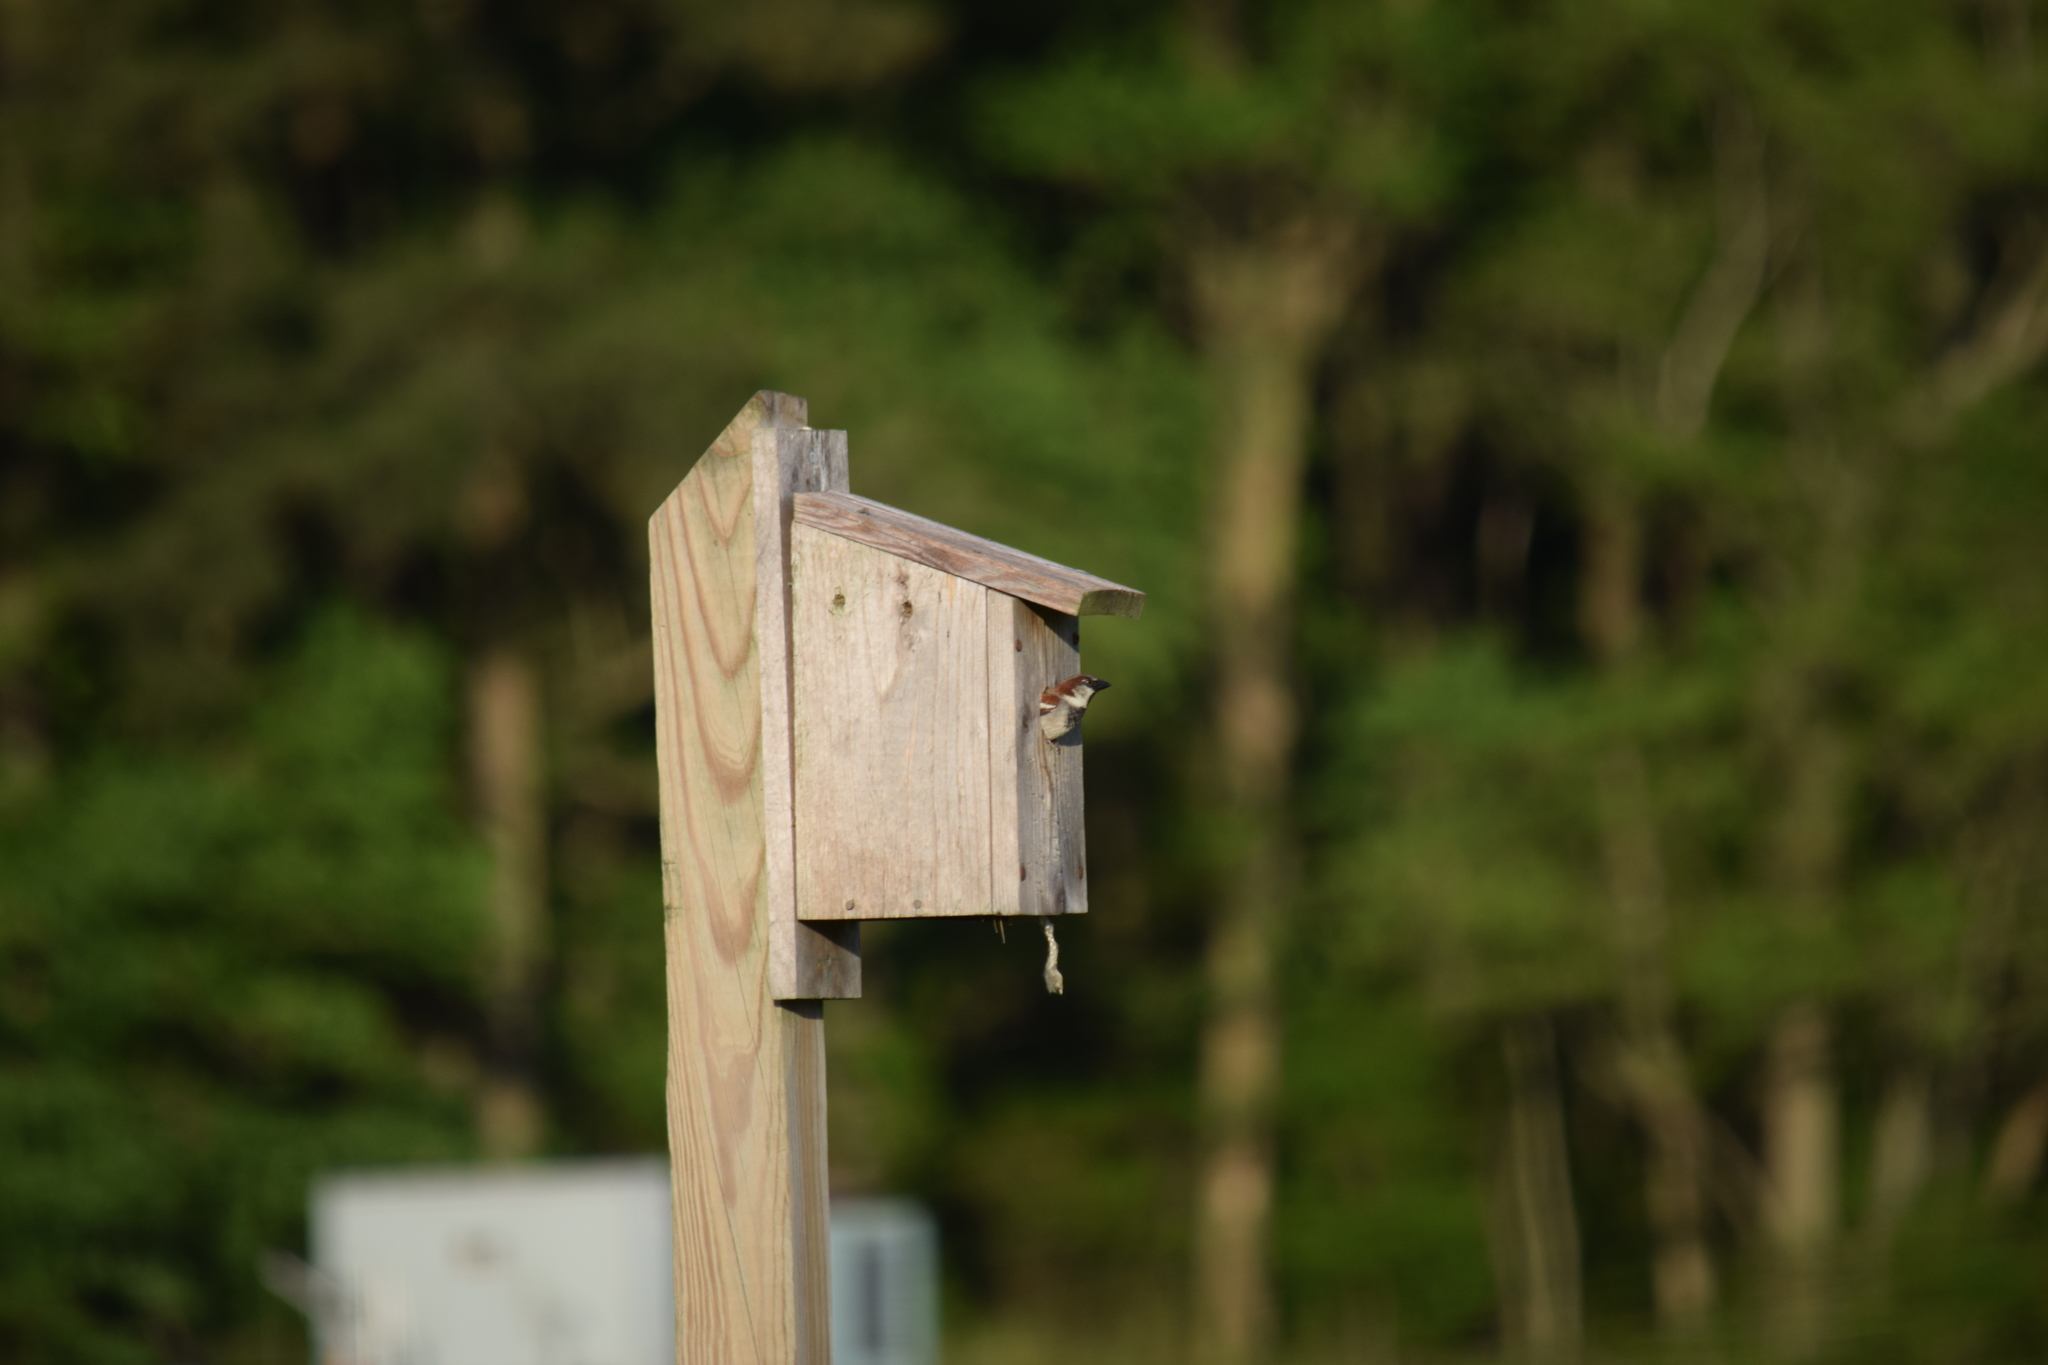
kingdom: Animalia
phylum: Chordata
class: Aves
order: Passeriformes
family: Passeridae
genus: Passer
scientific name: Passer domesticus
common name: House sparrow
